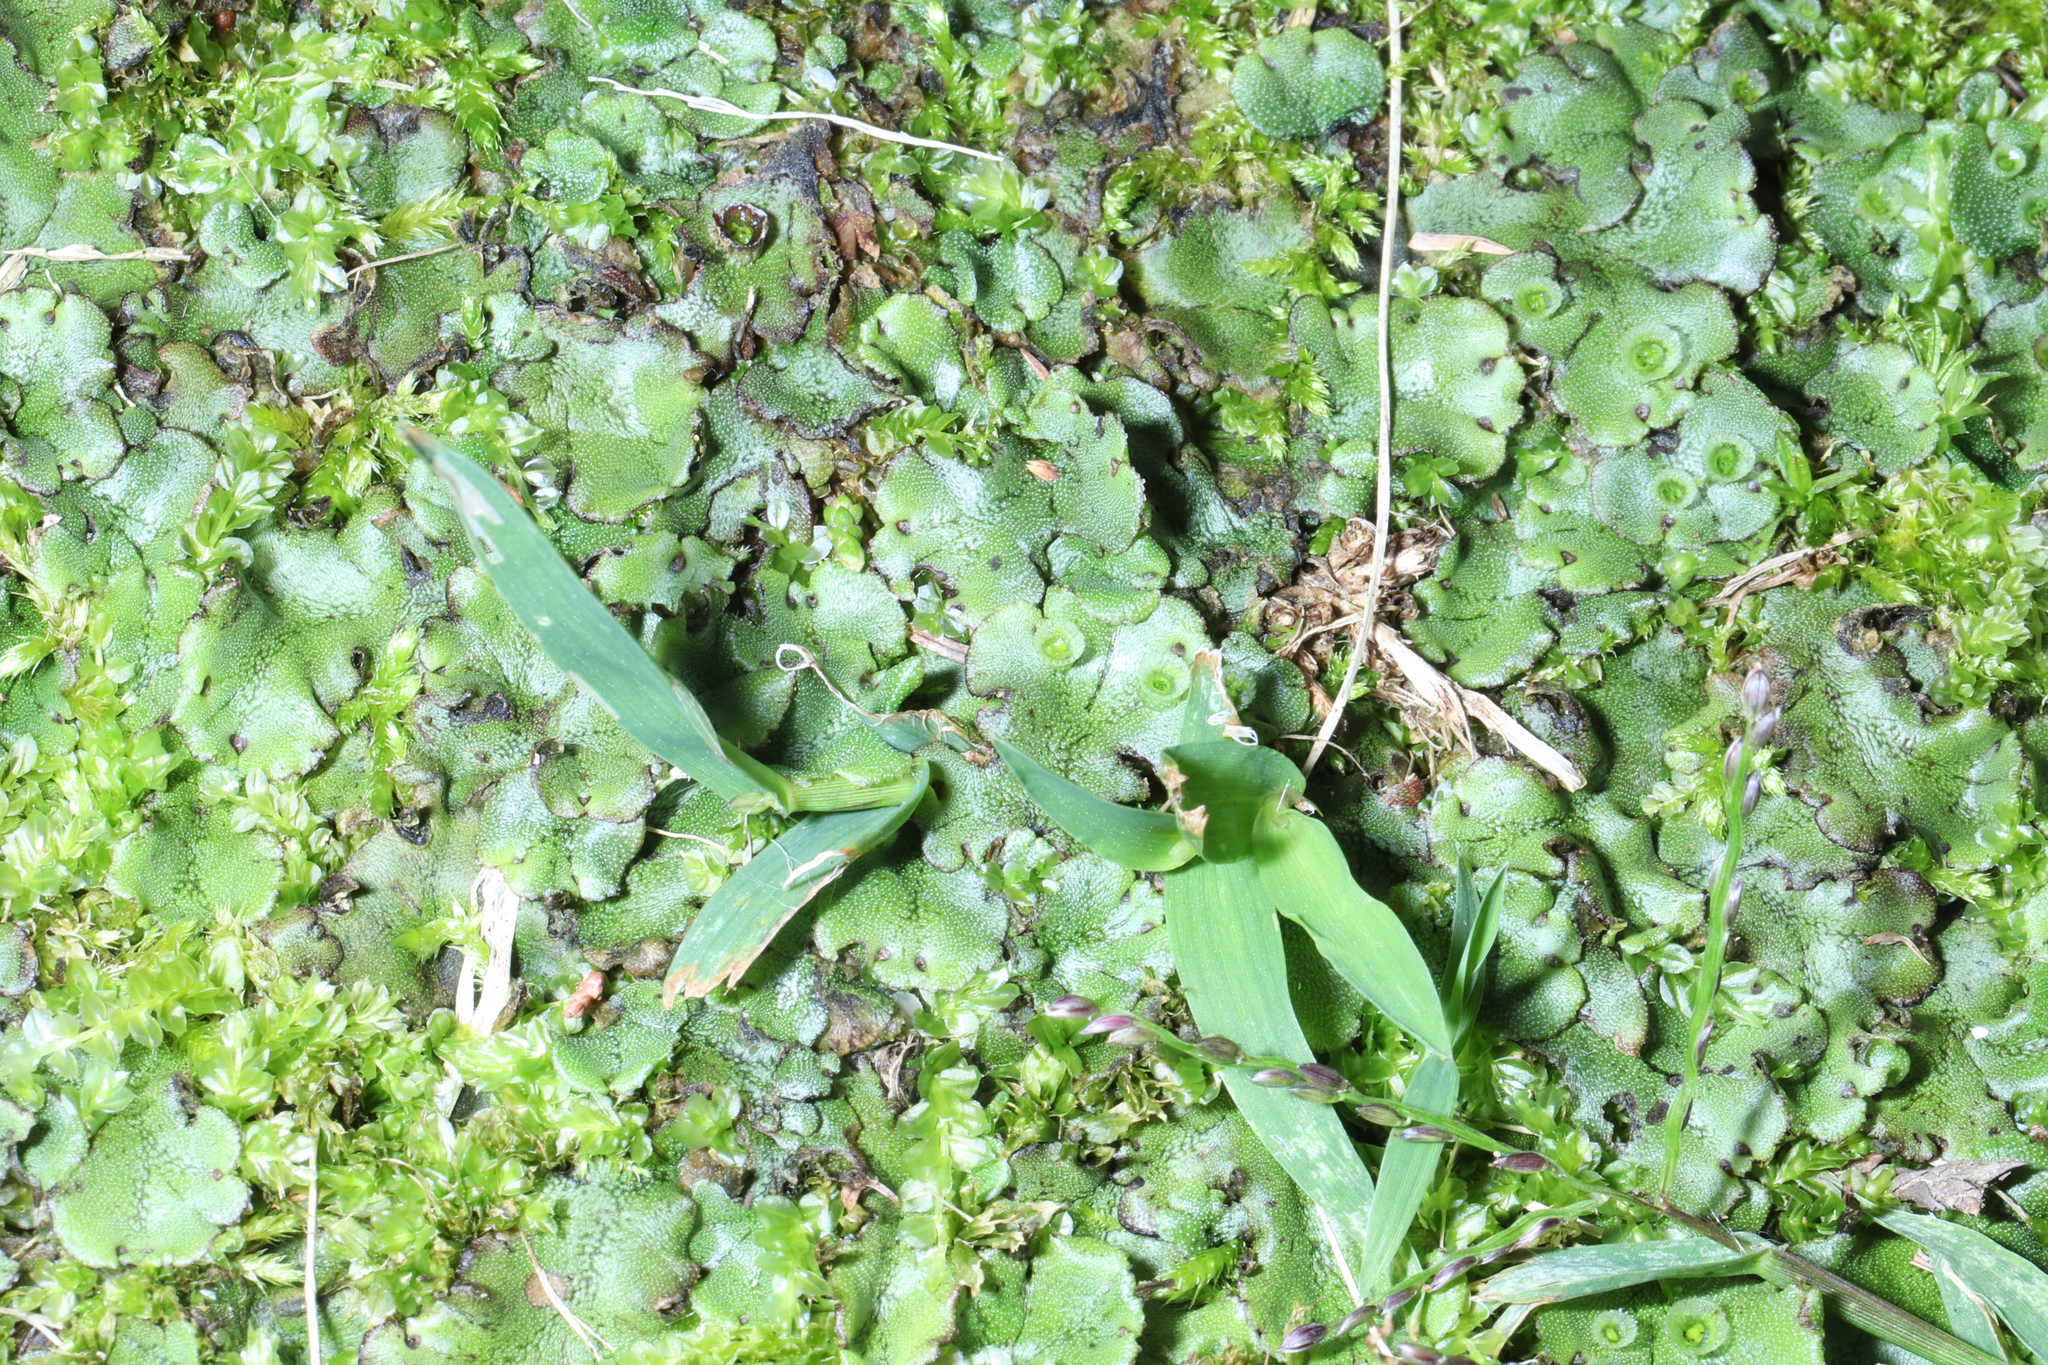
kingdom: Plantae
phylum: Marchantiophyta
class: Marchantiopsida
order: Marchantiales
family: Marchantiaceae
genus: Marchantia
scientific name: Marchantia polymorpha
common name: Common liverwort
